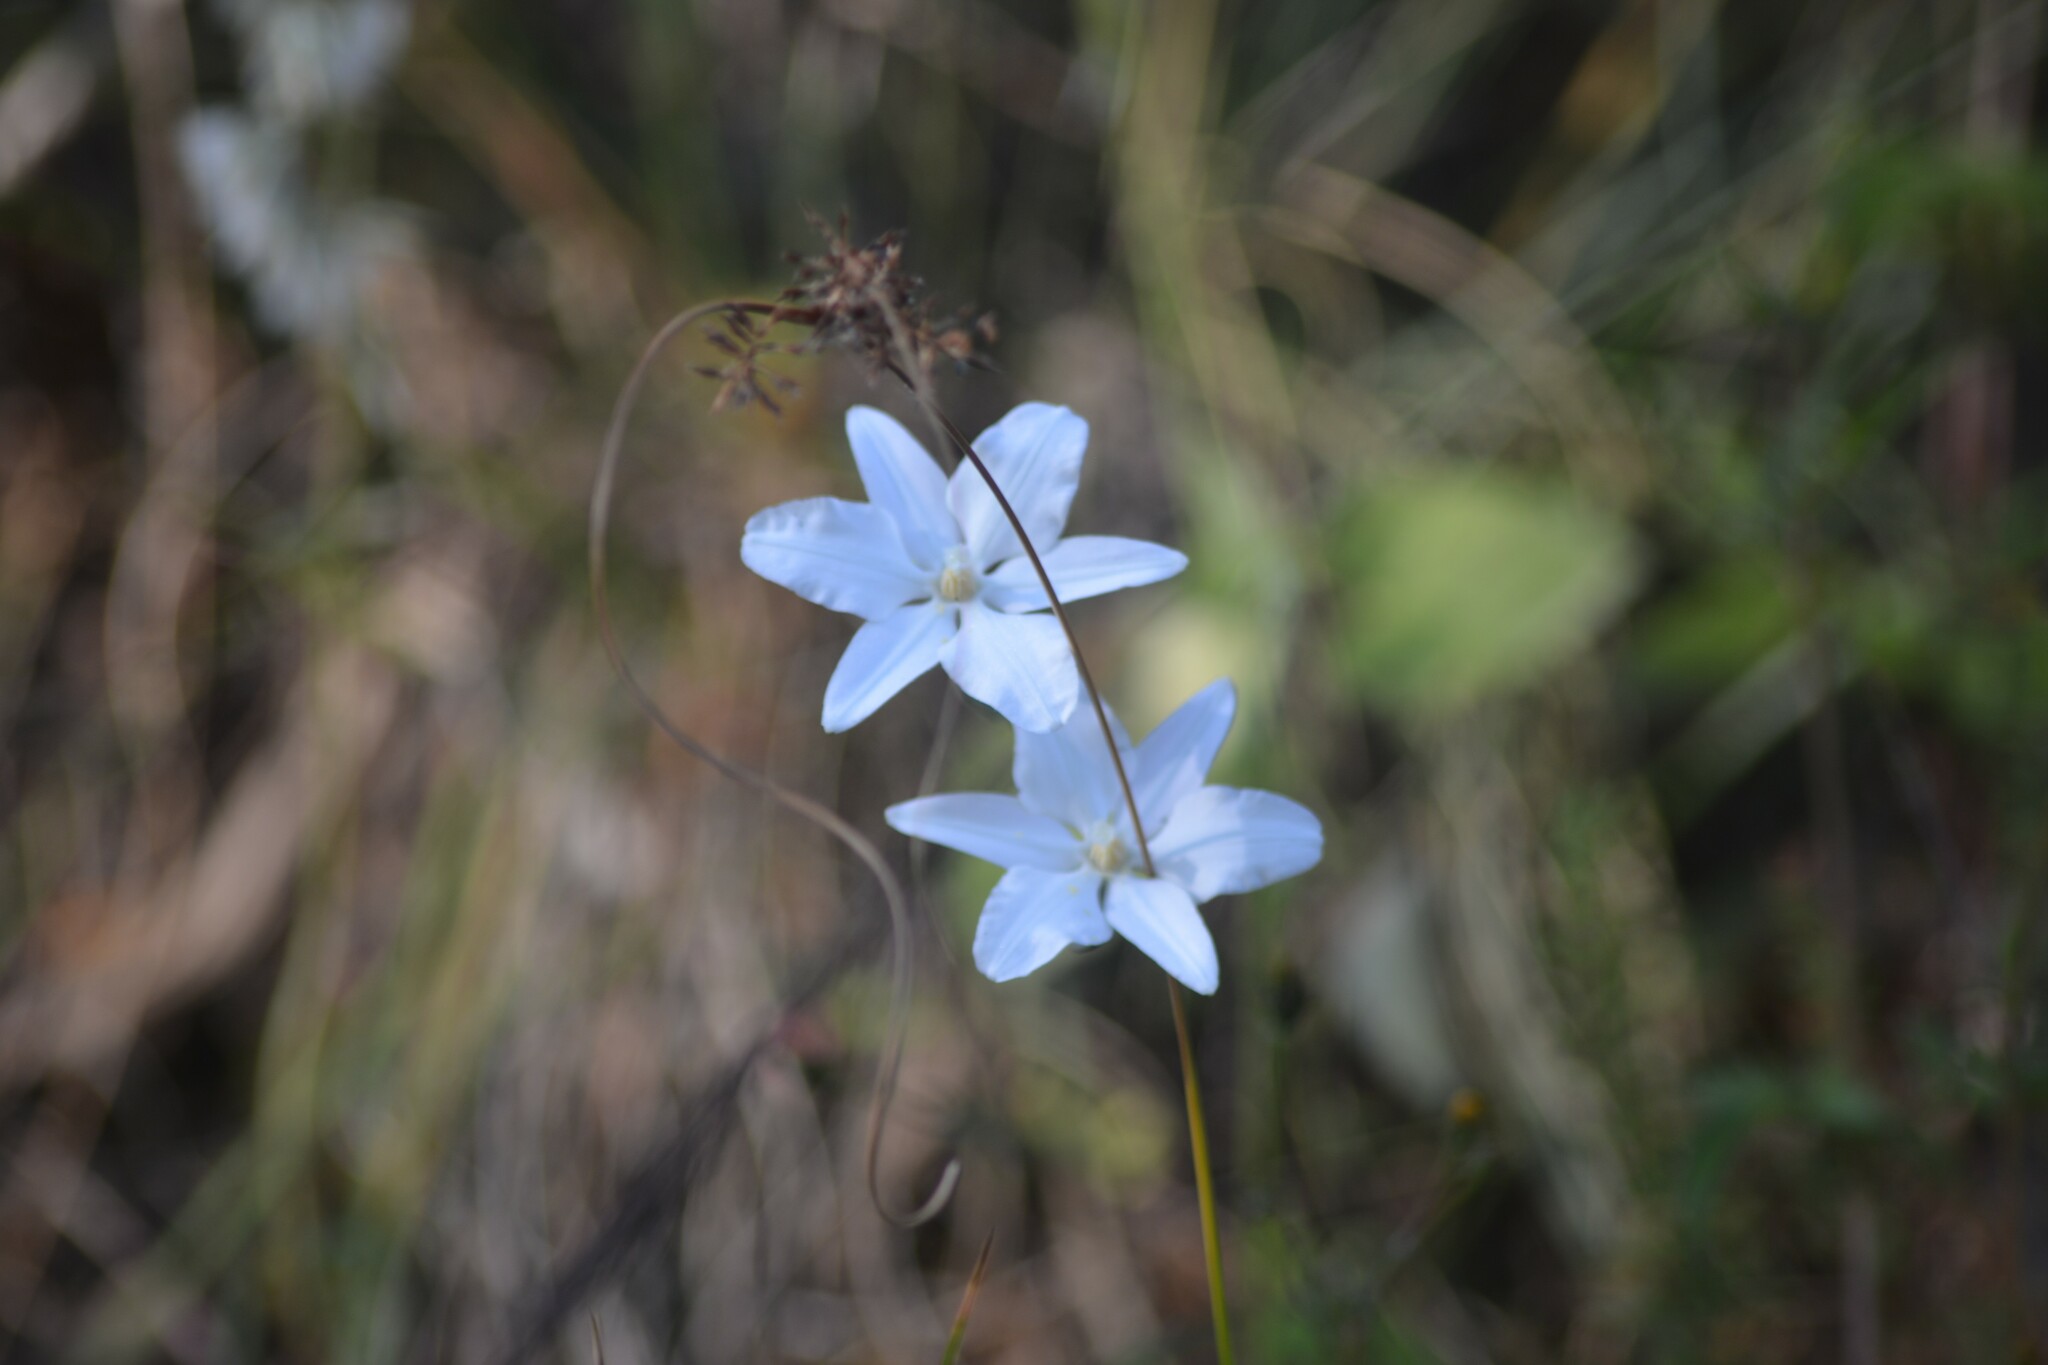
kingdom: Plantae
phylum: Tracheophyta
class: Liliopsida
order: Asparagales
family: Asparagaceae
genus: Milla
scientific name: Milla biflora
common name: Mexican-star
